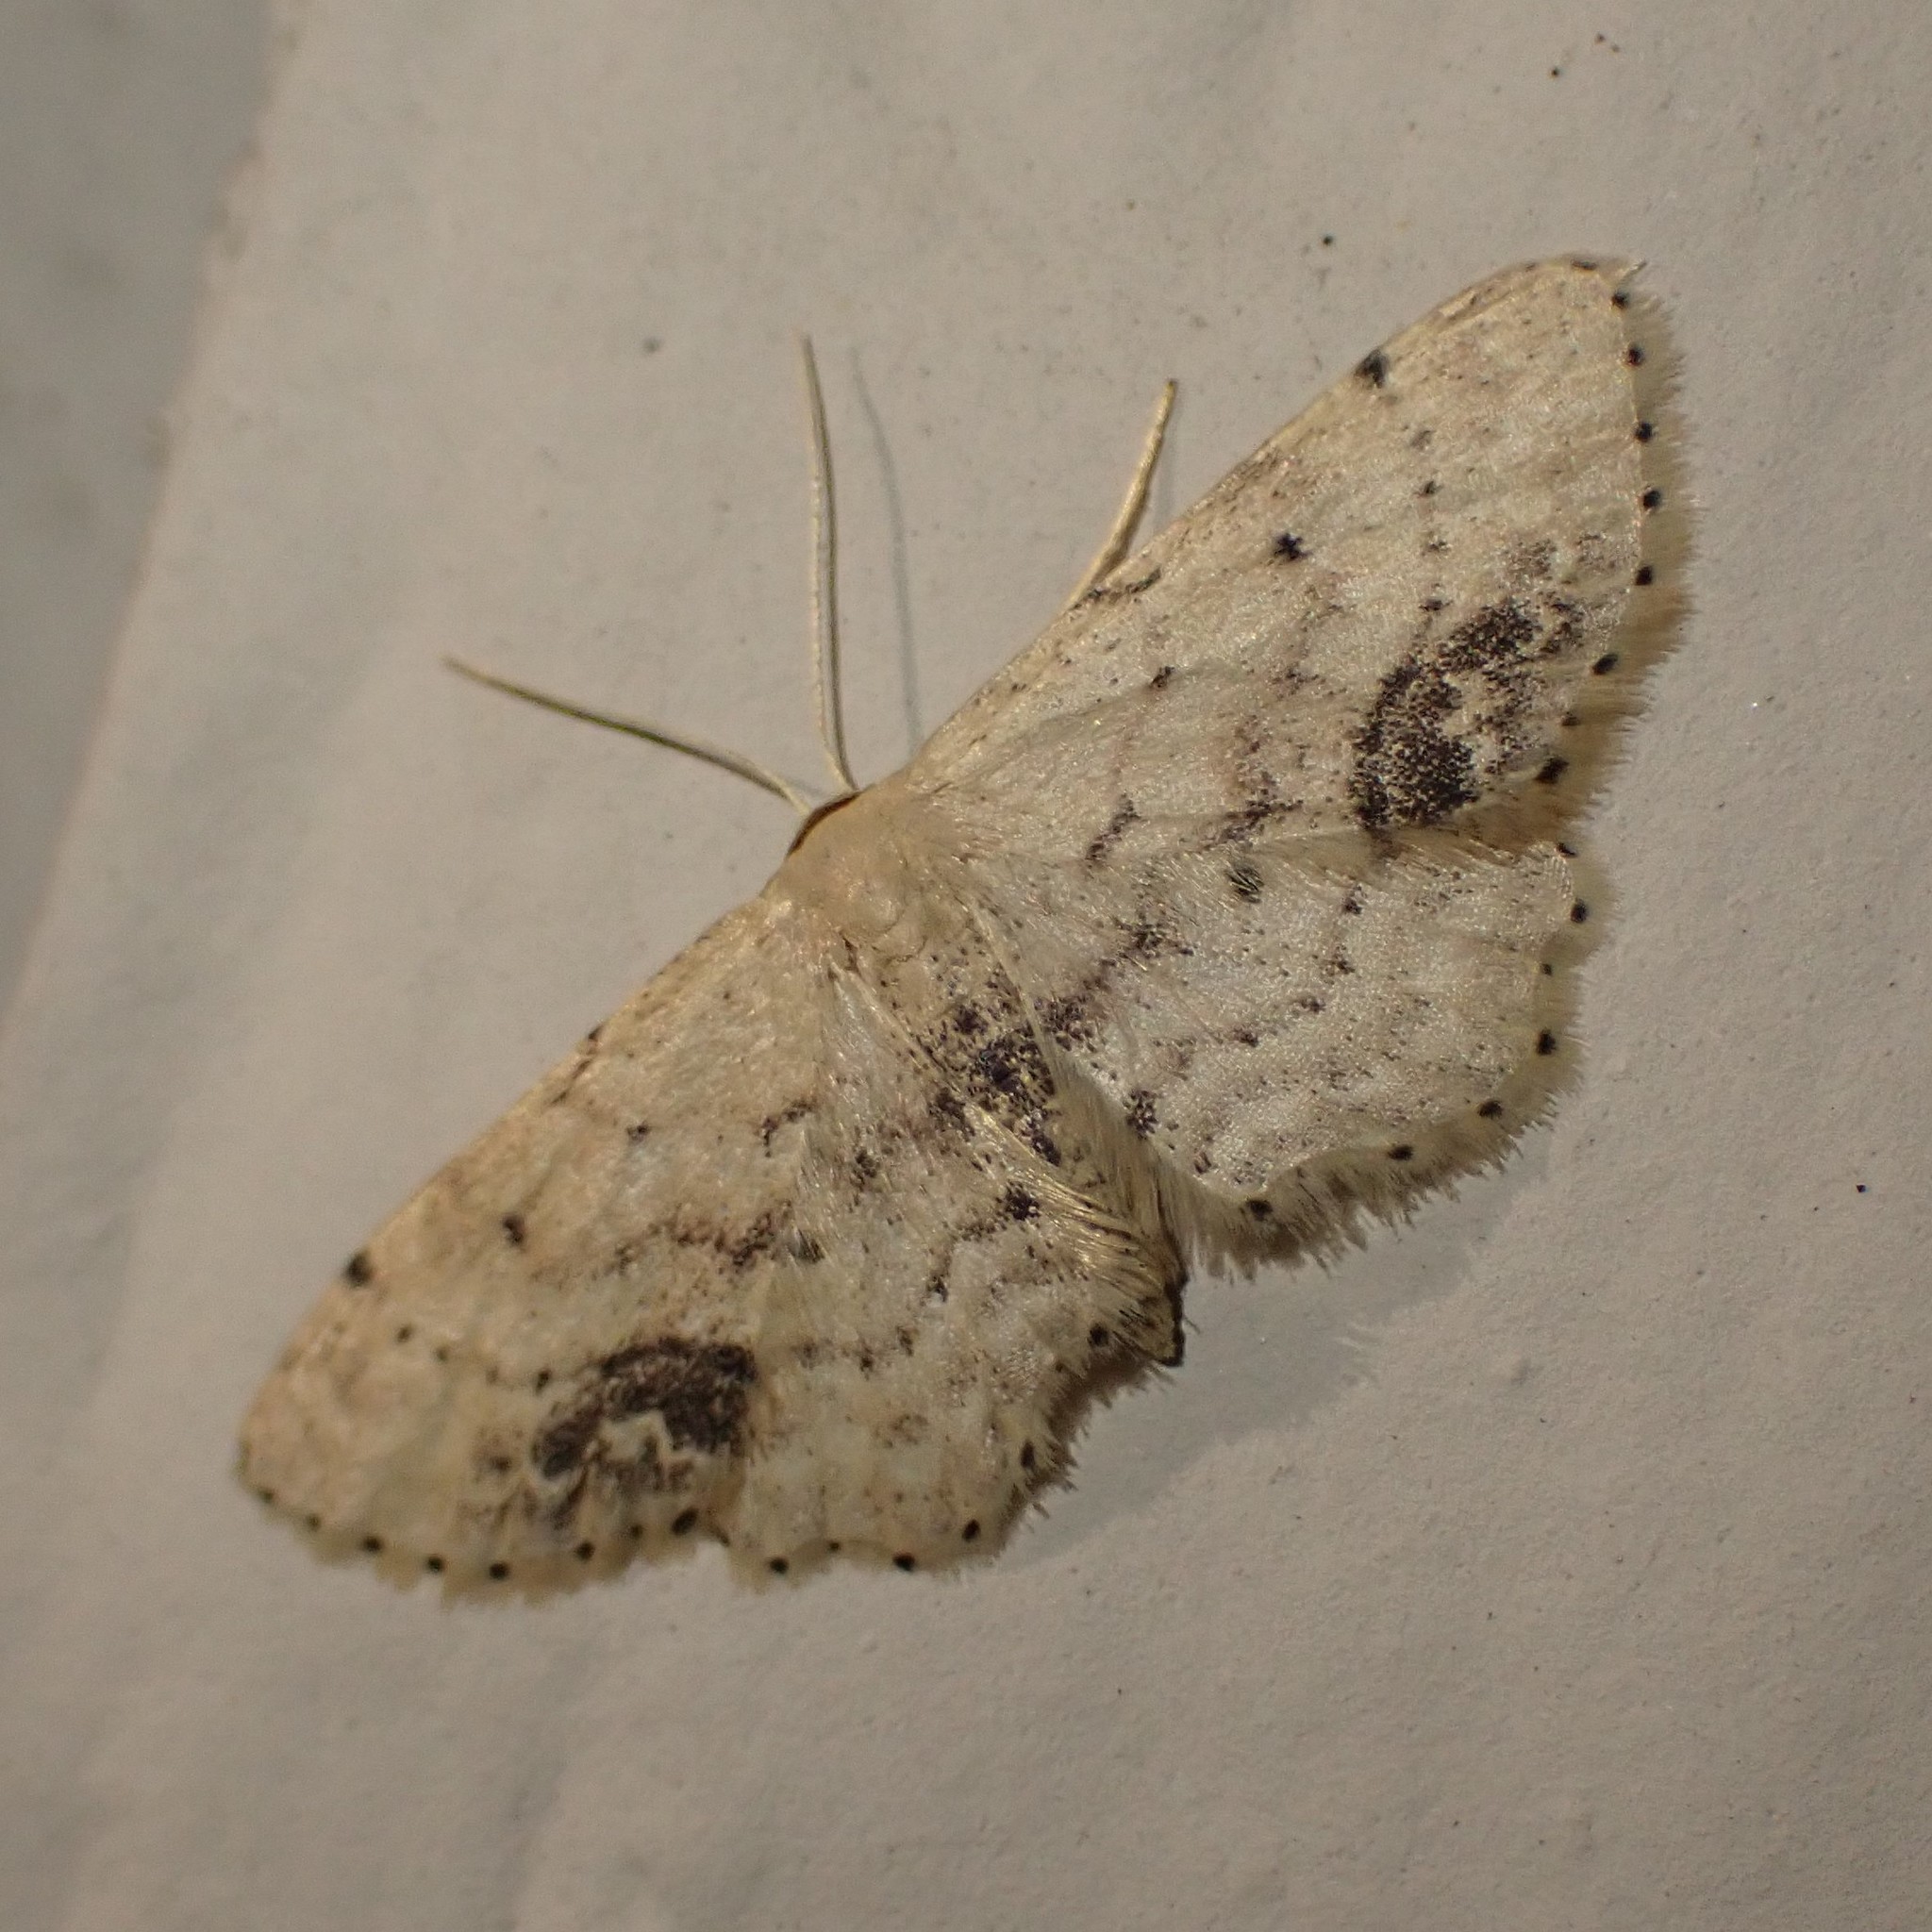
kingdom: Animalia
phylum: Arthropoda
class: Insecta
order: Lepidoptera
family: Geometridae
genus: Idaea
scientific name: Idaea dimidiata
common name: Single-dotted wave
